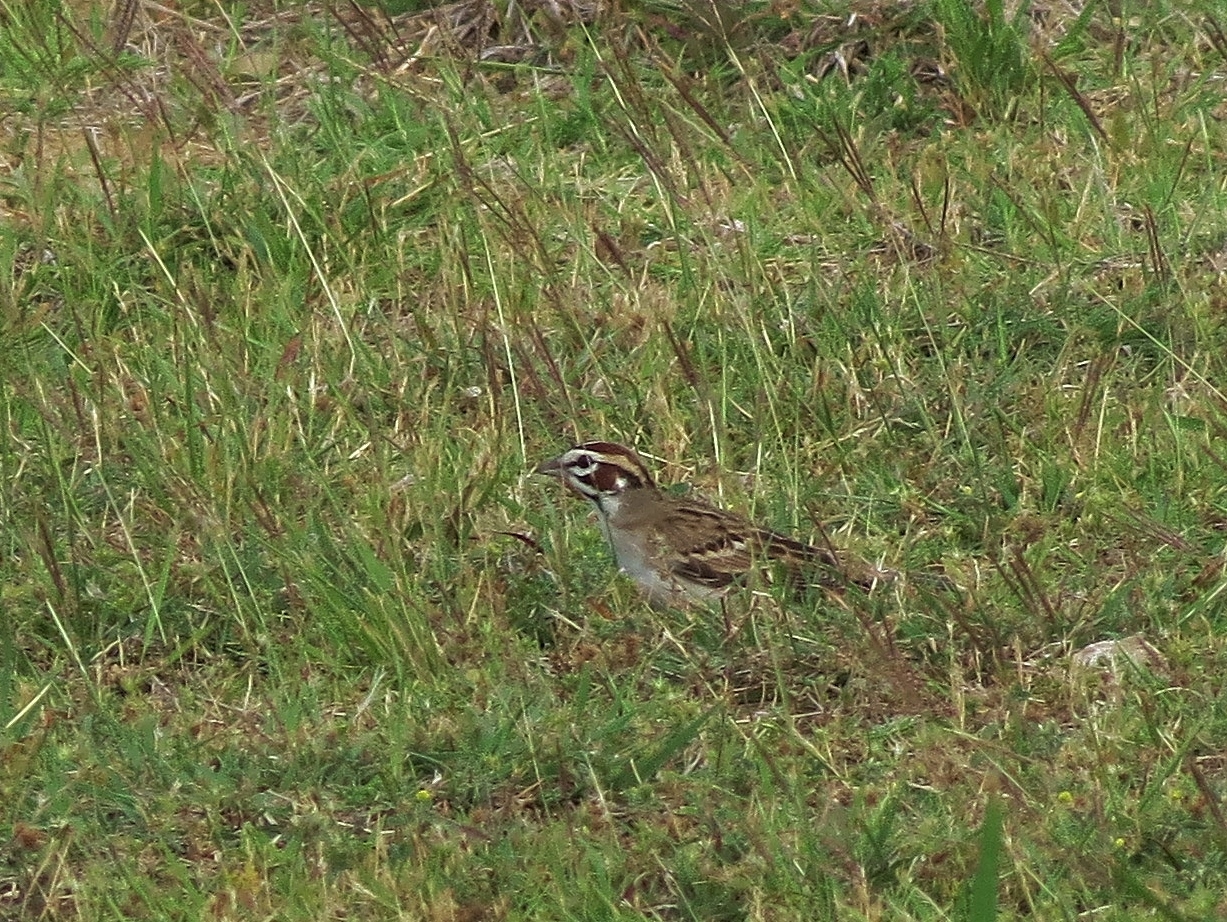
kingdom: Animalia
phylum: Chordata
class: Aves
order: Passeriformes
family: Passerellidae
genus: Chondestes
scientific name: Chondestes grammacus
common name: Lark sparrow
